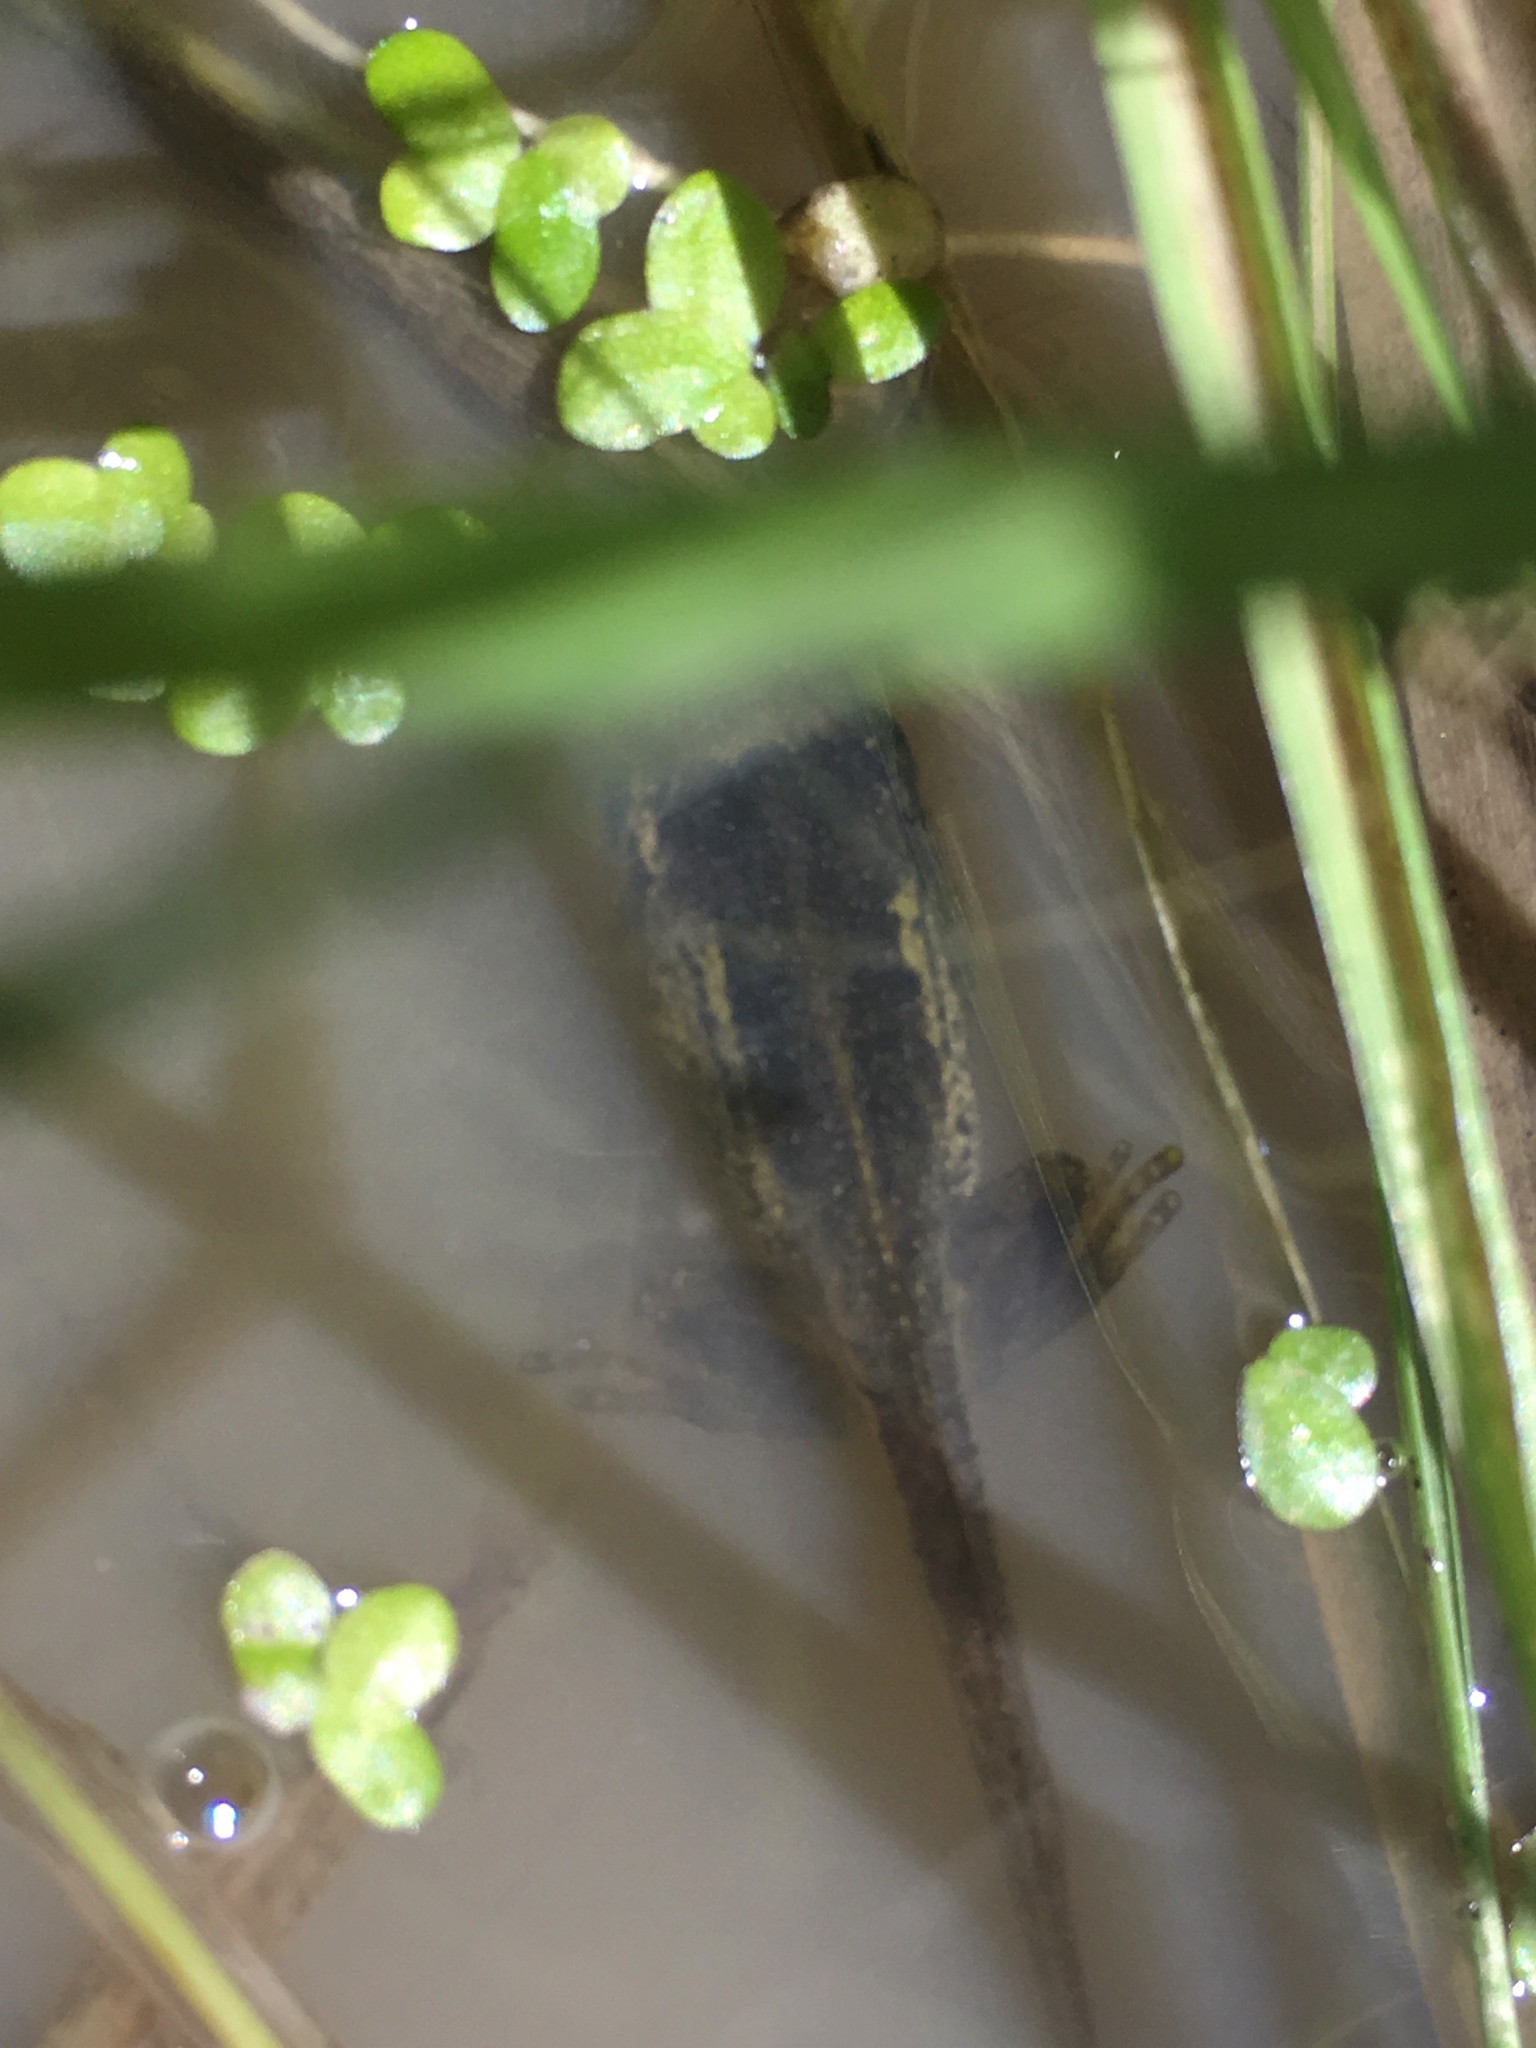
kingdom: Animalia
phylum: Chordata
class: Amphibia
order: Anura
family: Pelodryadidae
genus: Litoria
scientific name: Litoria ewingii
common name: Southern brown tree frog
